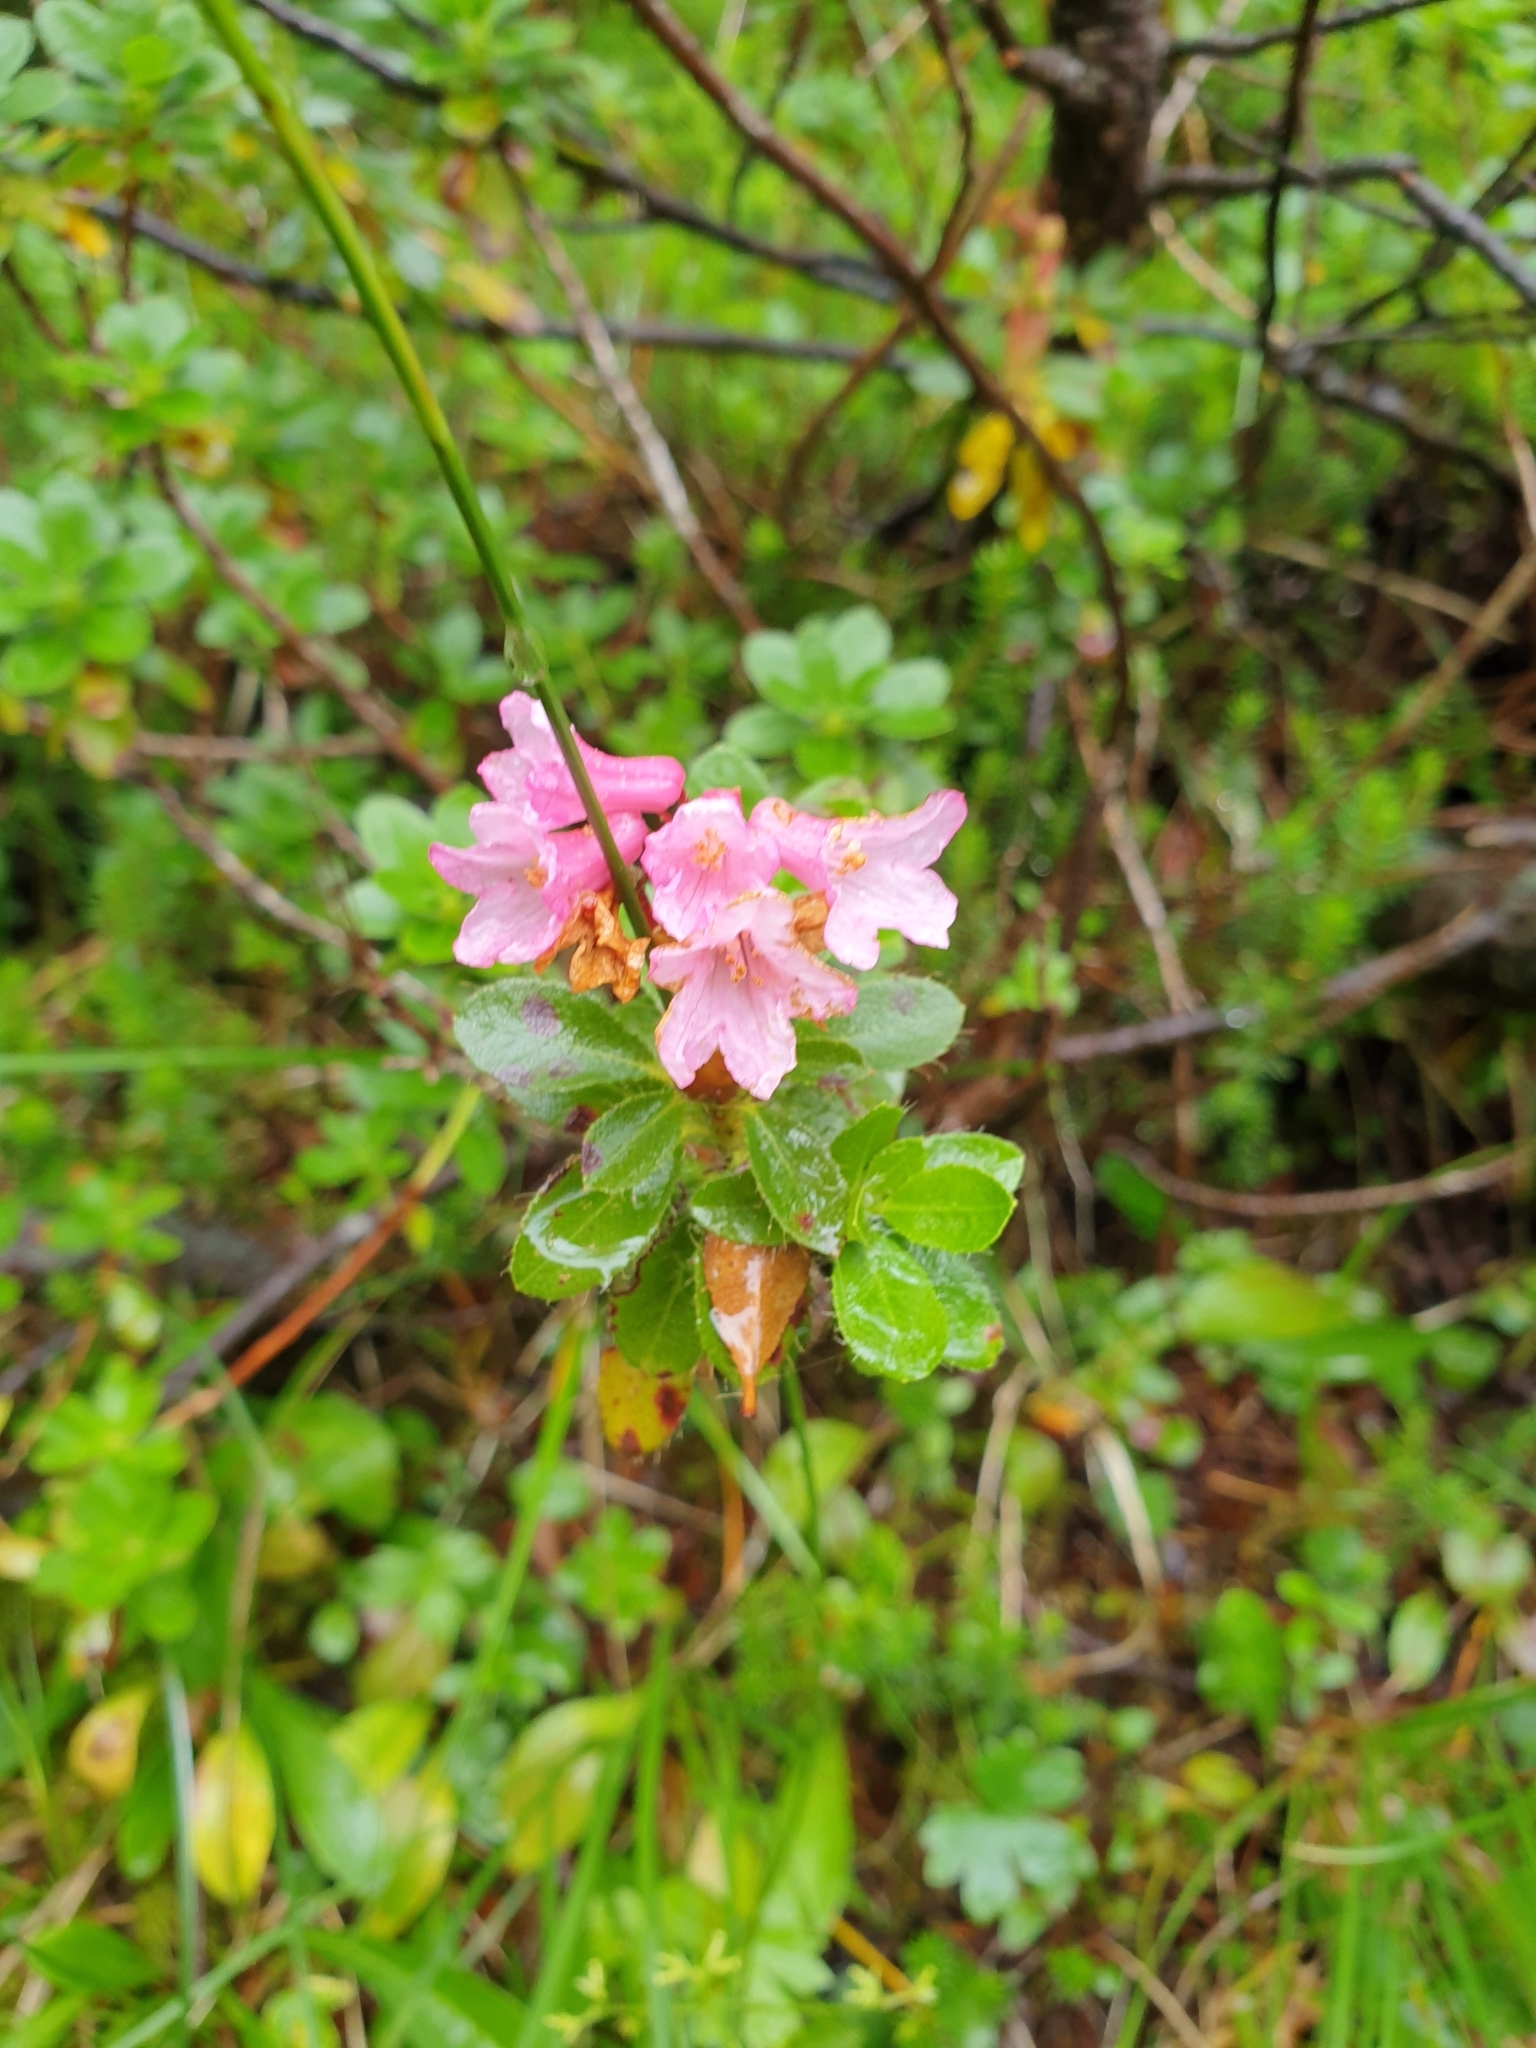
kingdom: Plantae
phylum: Tracheophyta
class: Magnoliopsida
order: Ericales
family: Ericaceae
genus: Rhododendron
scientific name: Rhododendron hirsutum
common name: Hairy alpenrose
